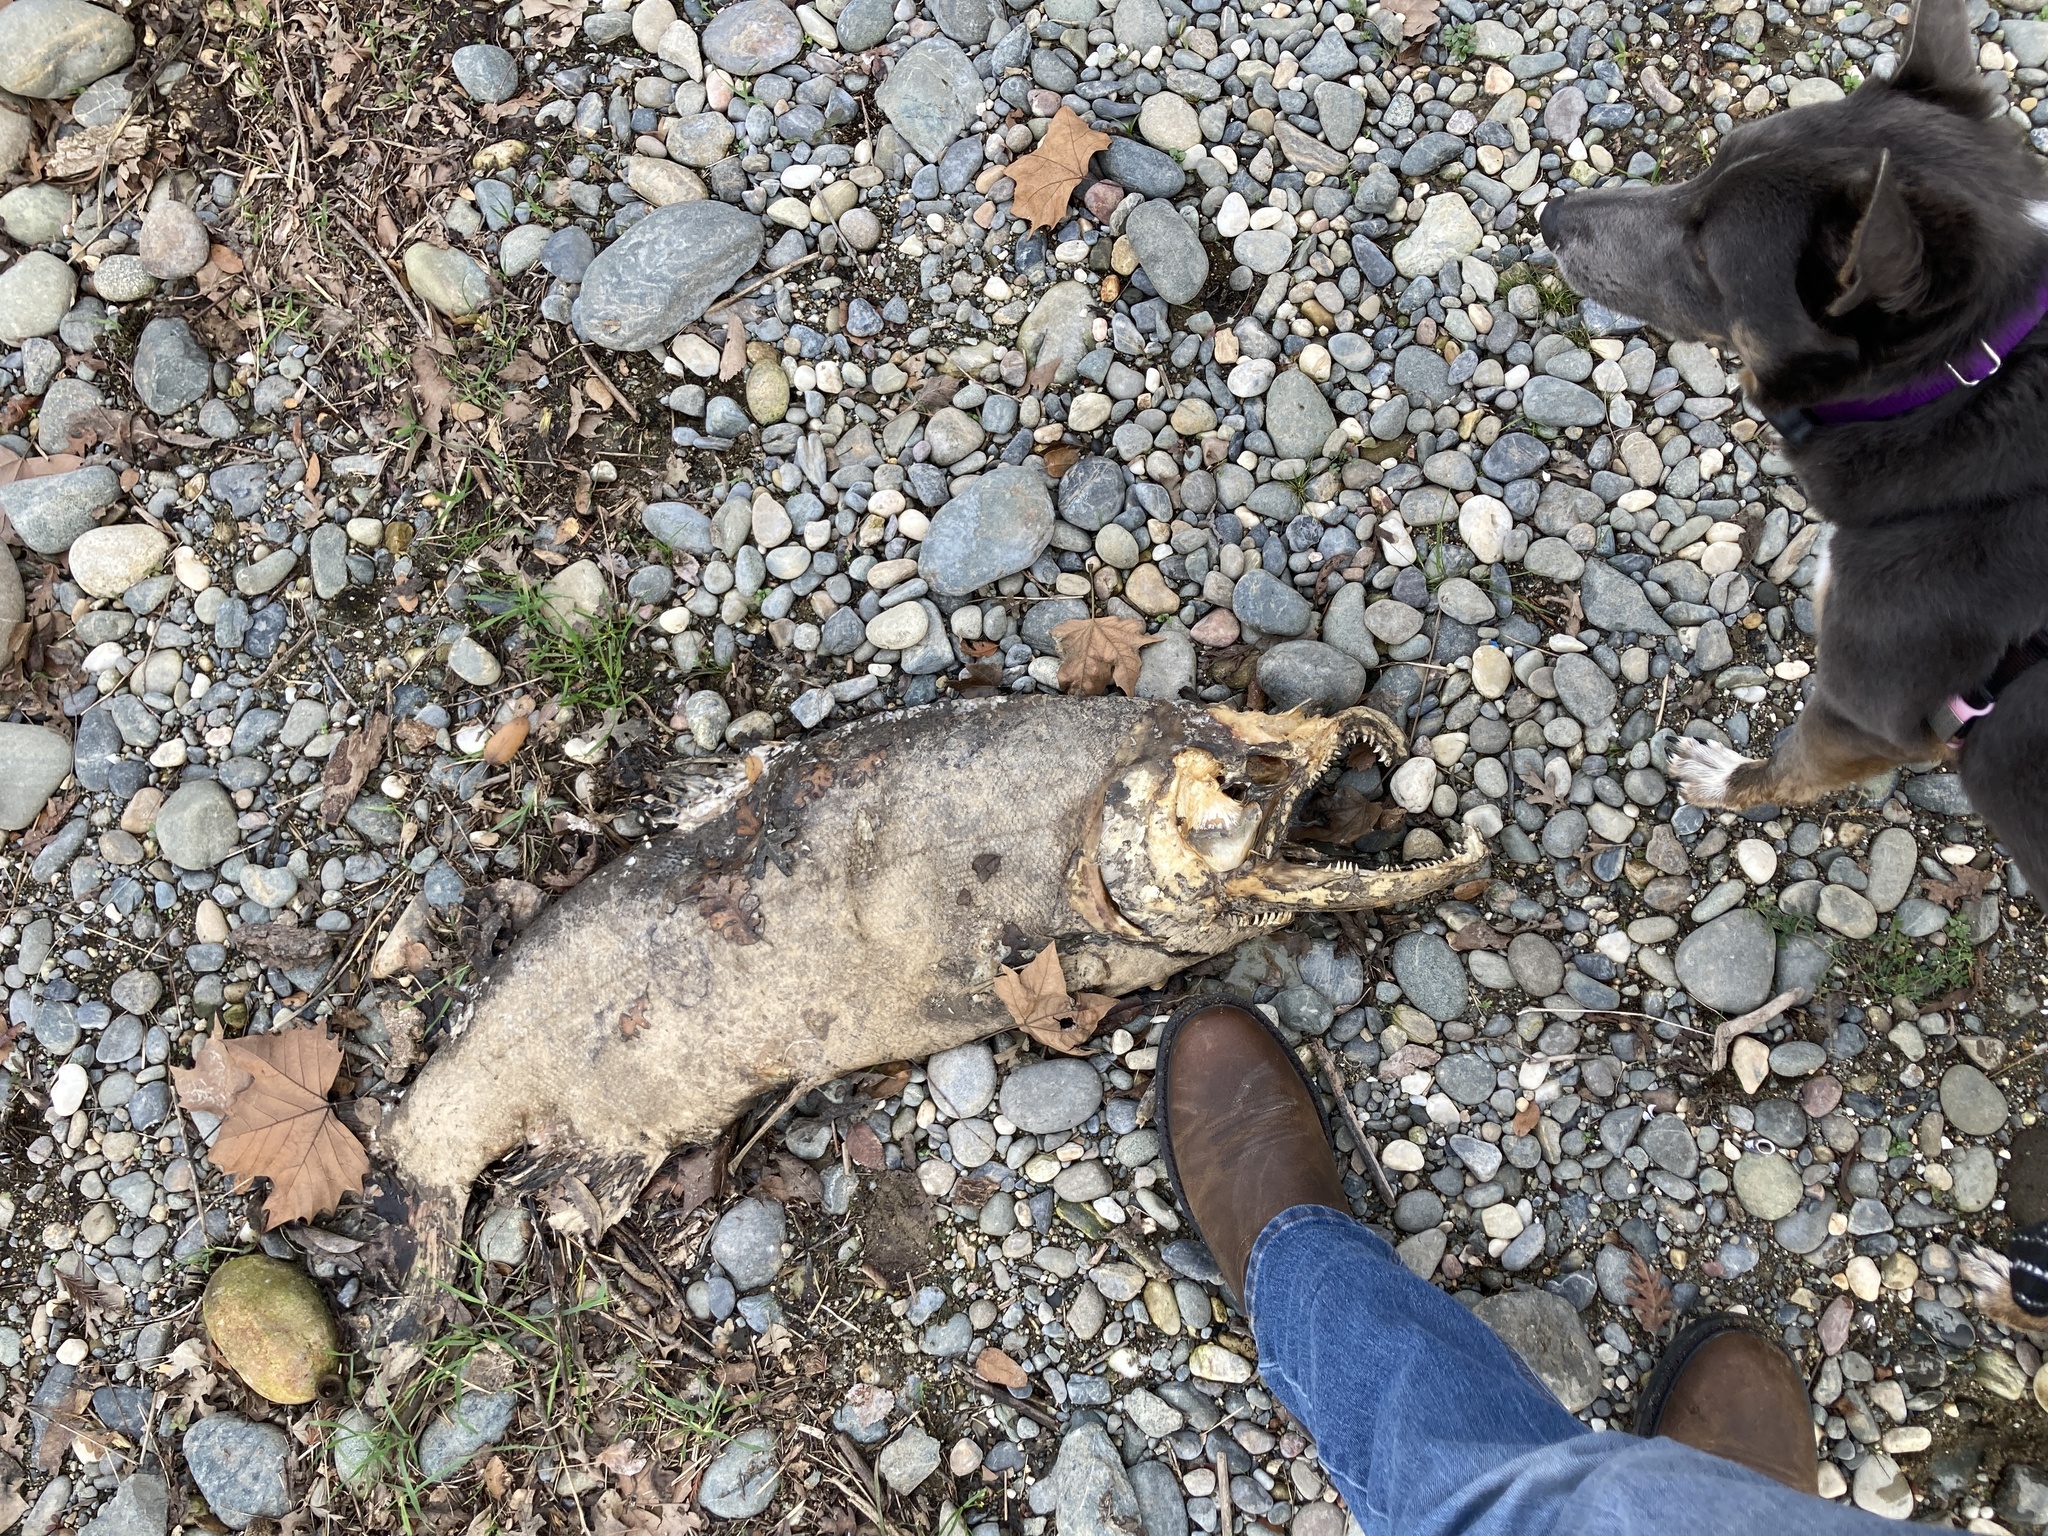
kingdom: Animalia
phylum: Chordata
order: Salmoniformes
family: Salmonidae
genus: Oncorhynchus
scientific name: Oncorhynchus tshawytscha
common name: Chinook salmon
